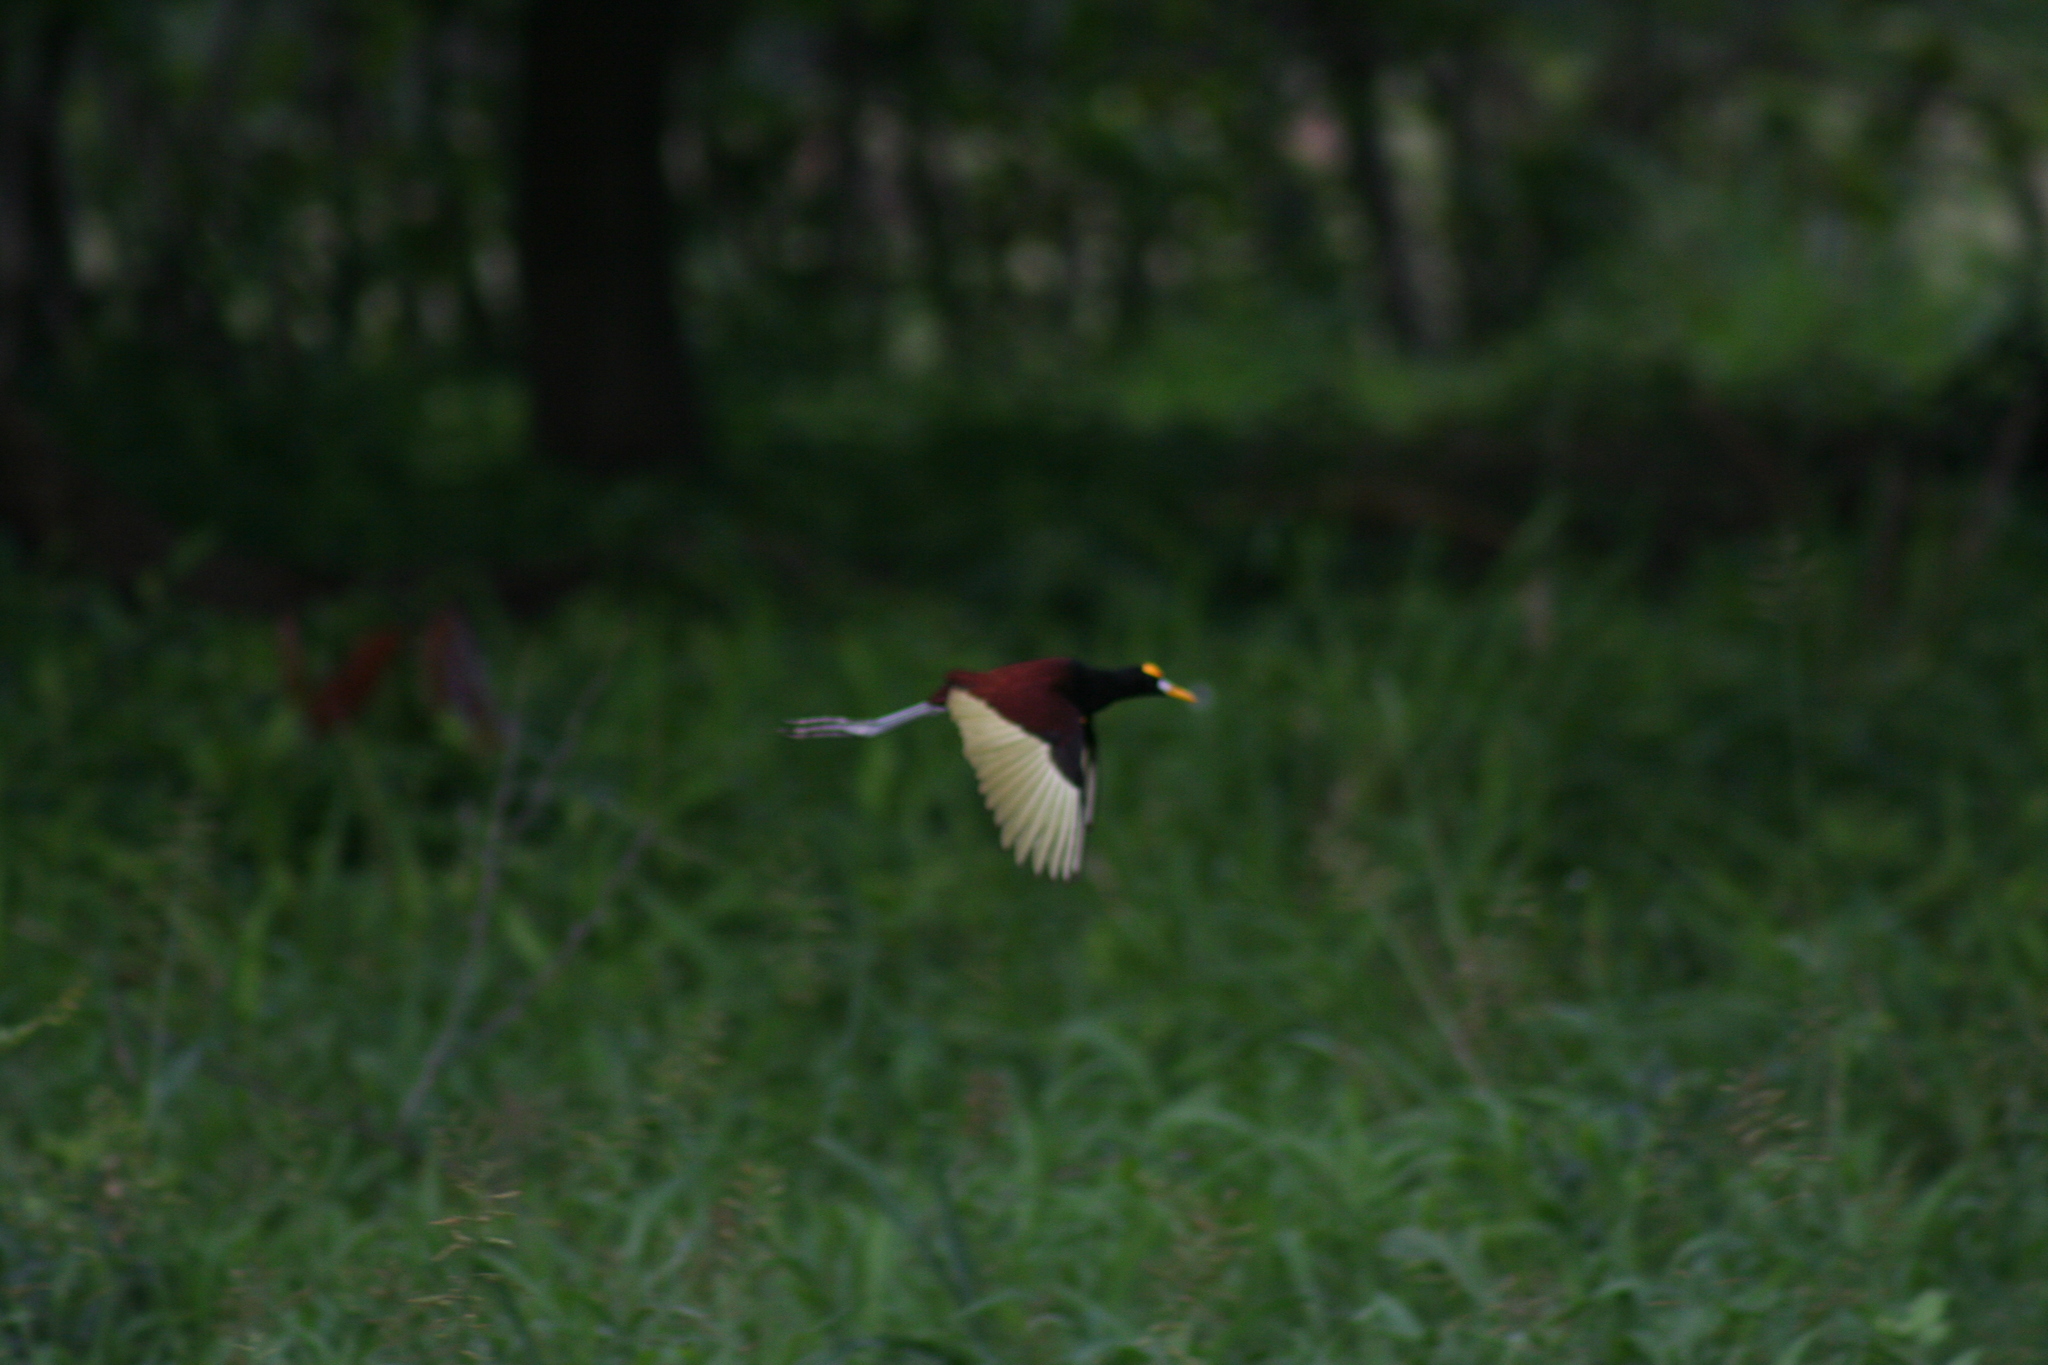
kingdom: Animalia
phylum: Chordata
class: Aves
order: Charadriiformes
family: Jacanidae
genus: Jacana
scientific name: Jacana spinosa
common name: Northern jacana
